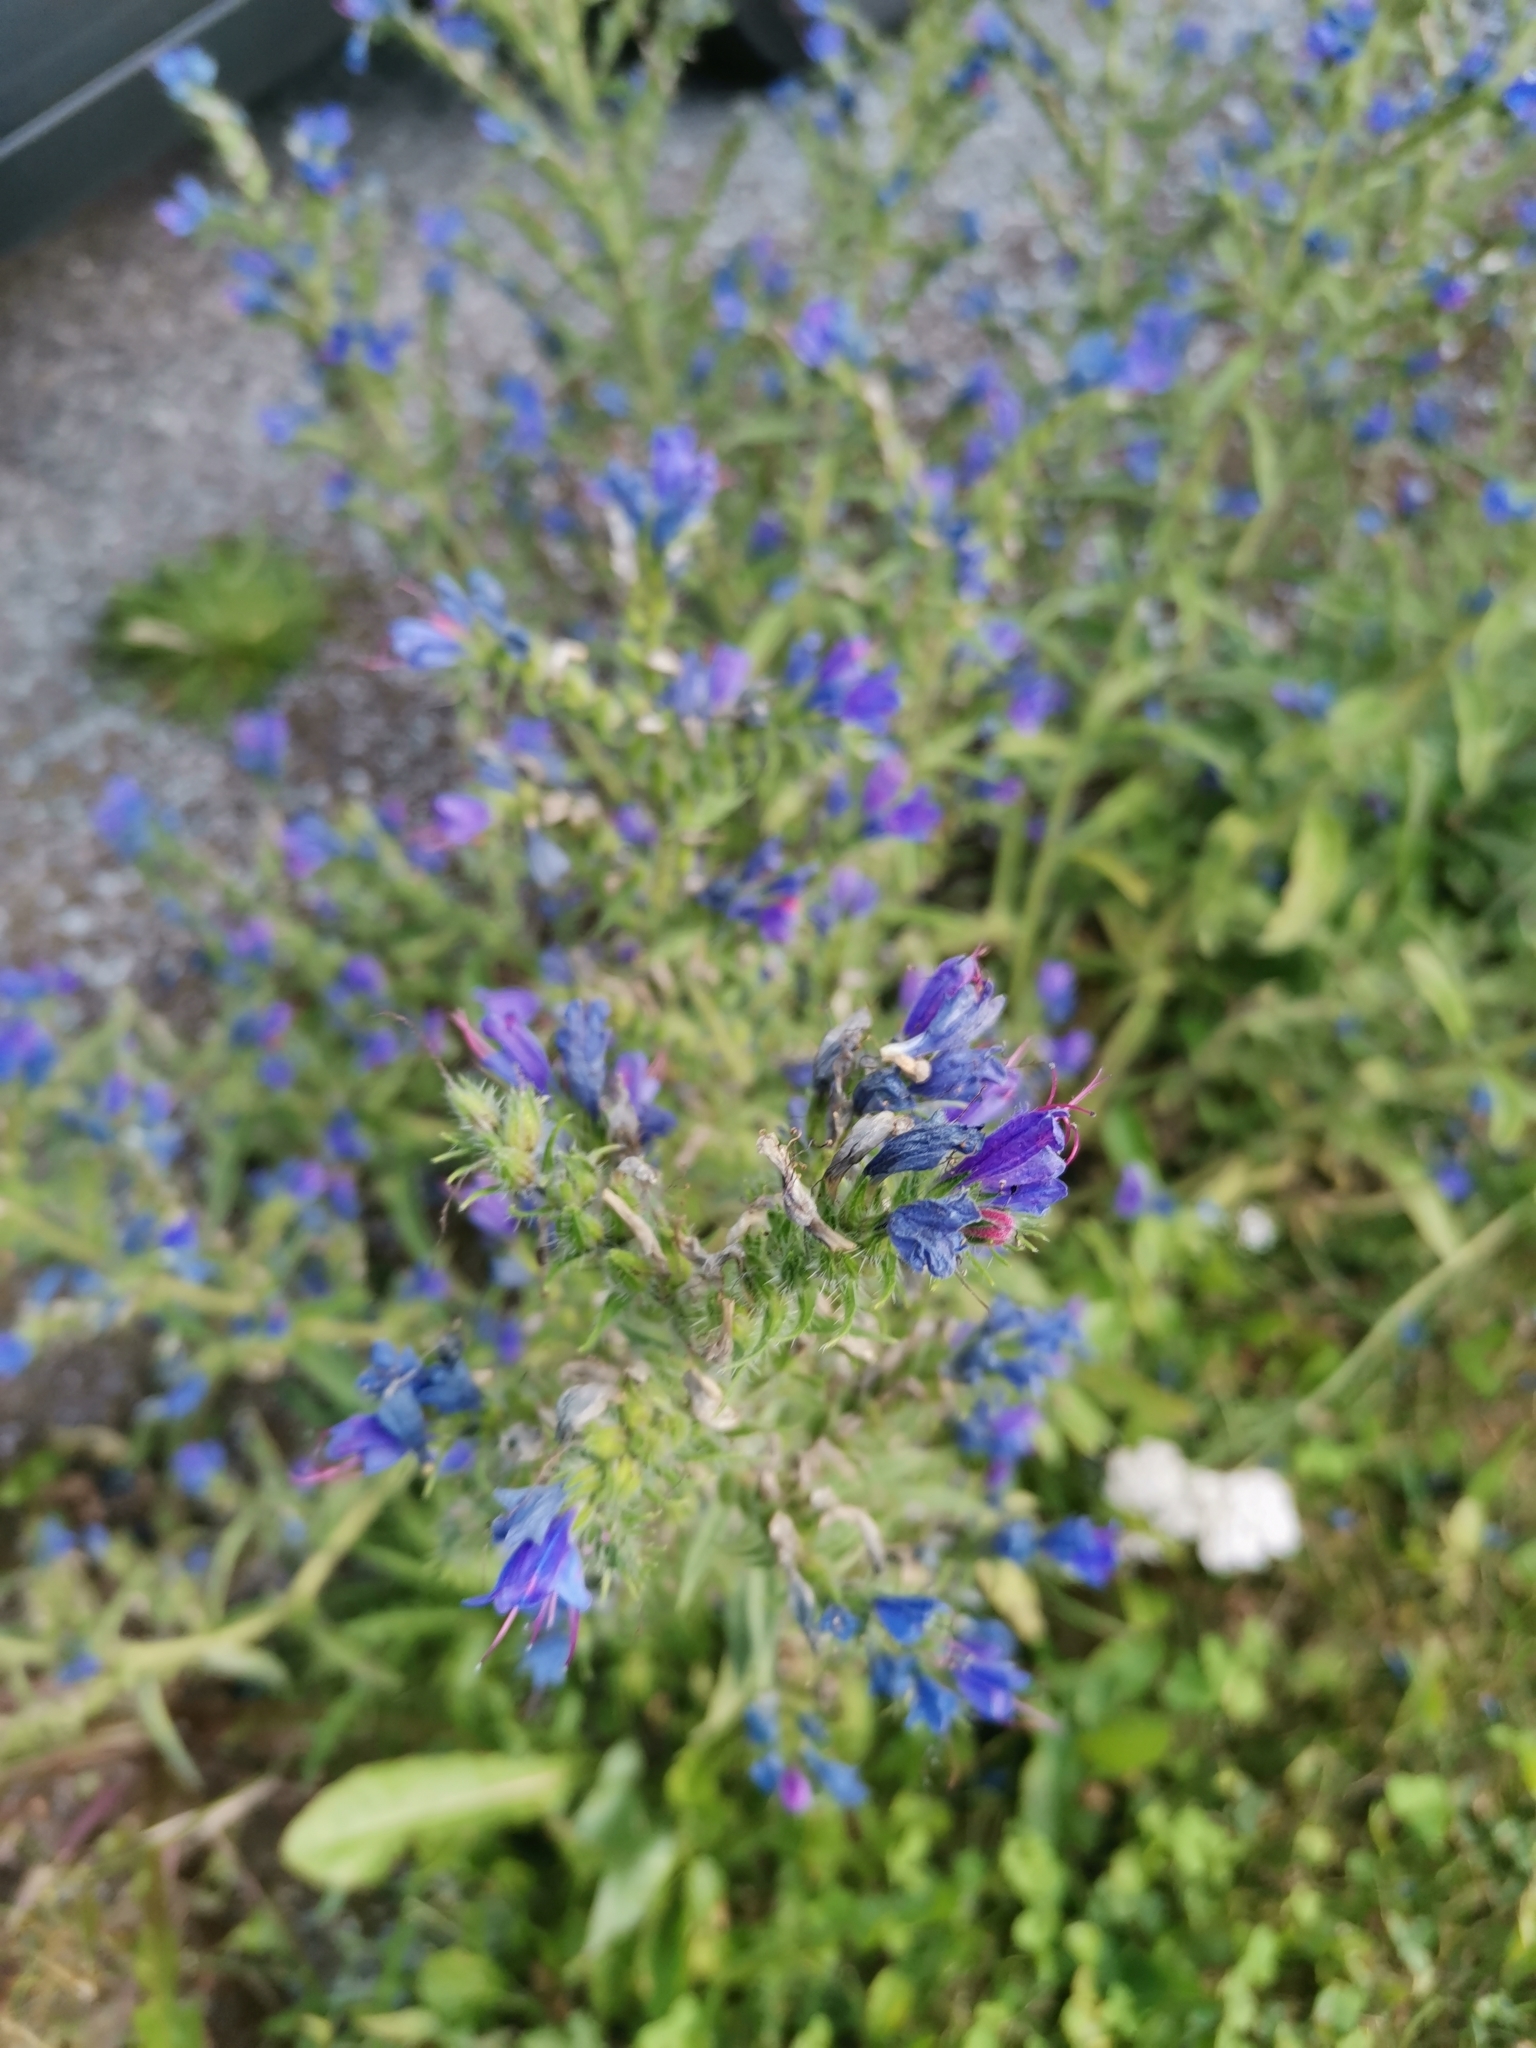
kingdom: Plantae
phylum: Tracheophyta
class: Magnoliopsida
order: Boraginales
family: Boraginaceae
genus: Echium
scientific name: Echium vulgare
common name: Common viper's bugloss
